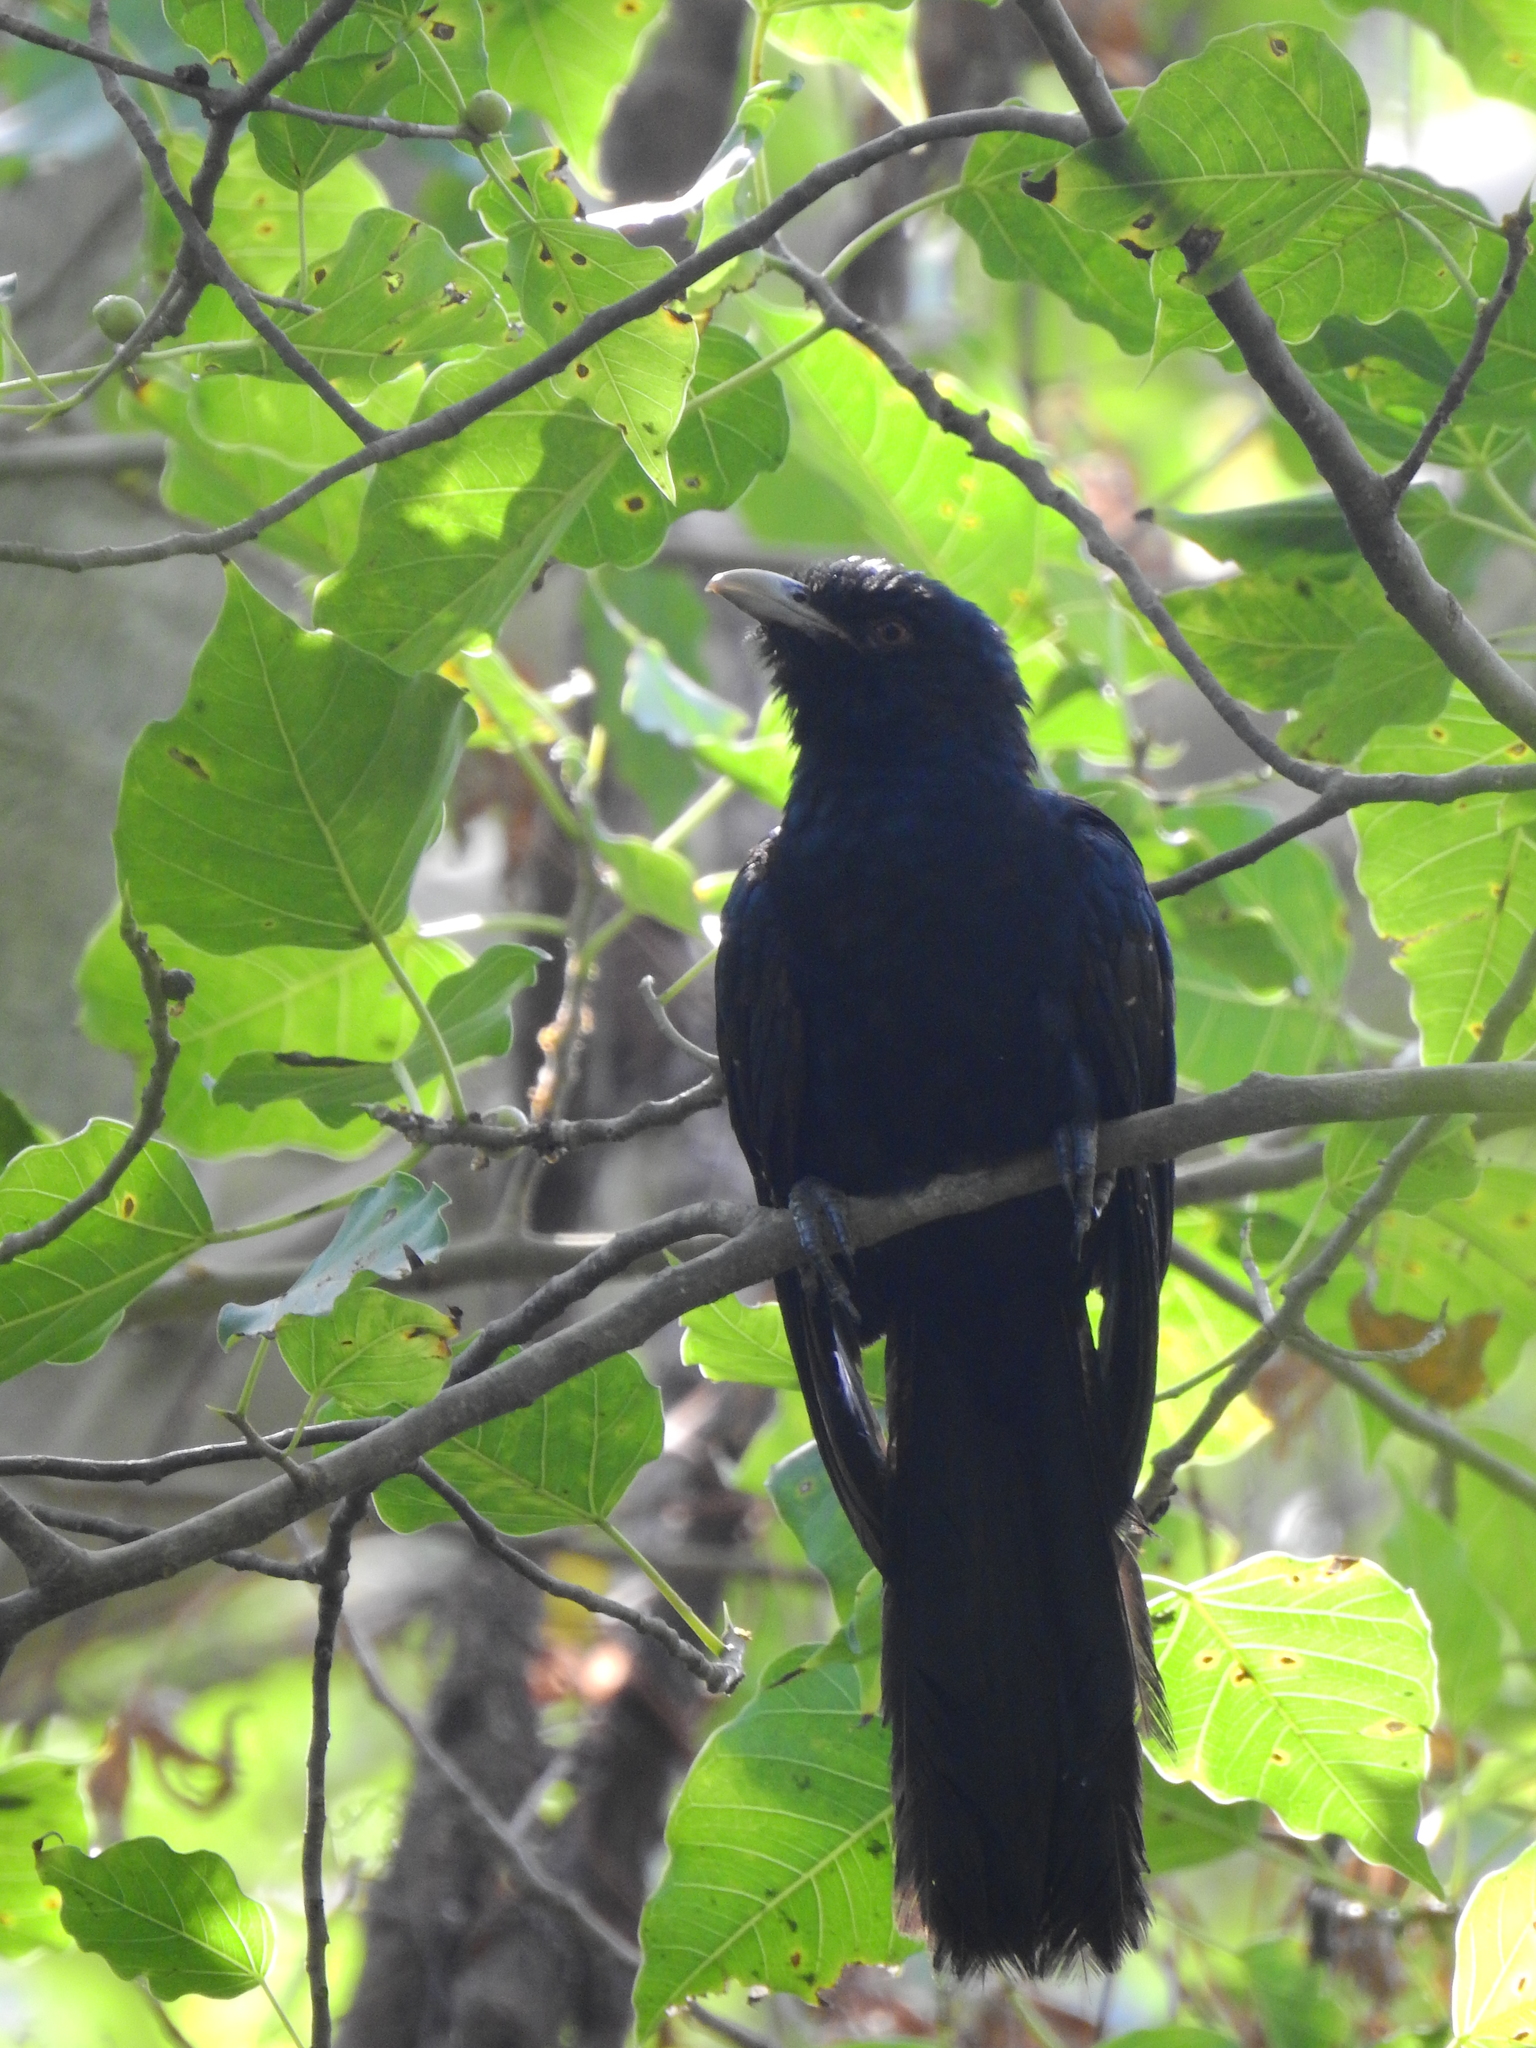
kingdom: Animalia
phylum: Chordata
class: Aves
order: Cuculiformes
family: Cuculidae
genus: Eudynamys
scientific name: Eudynamys scolopaceus
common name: Asian koel
